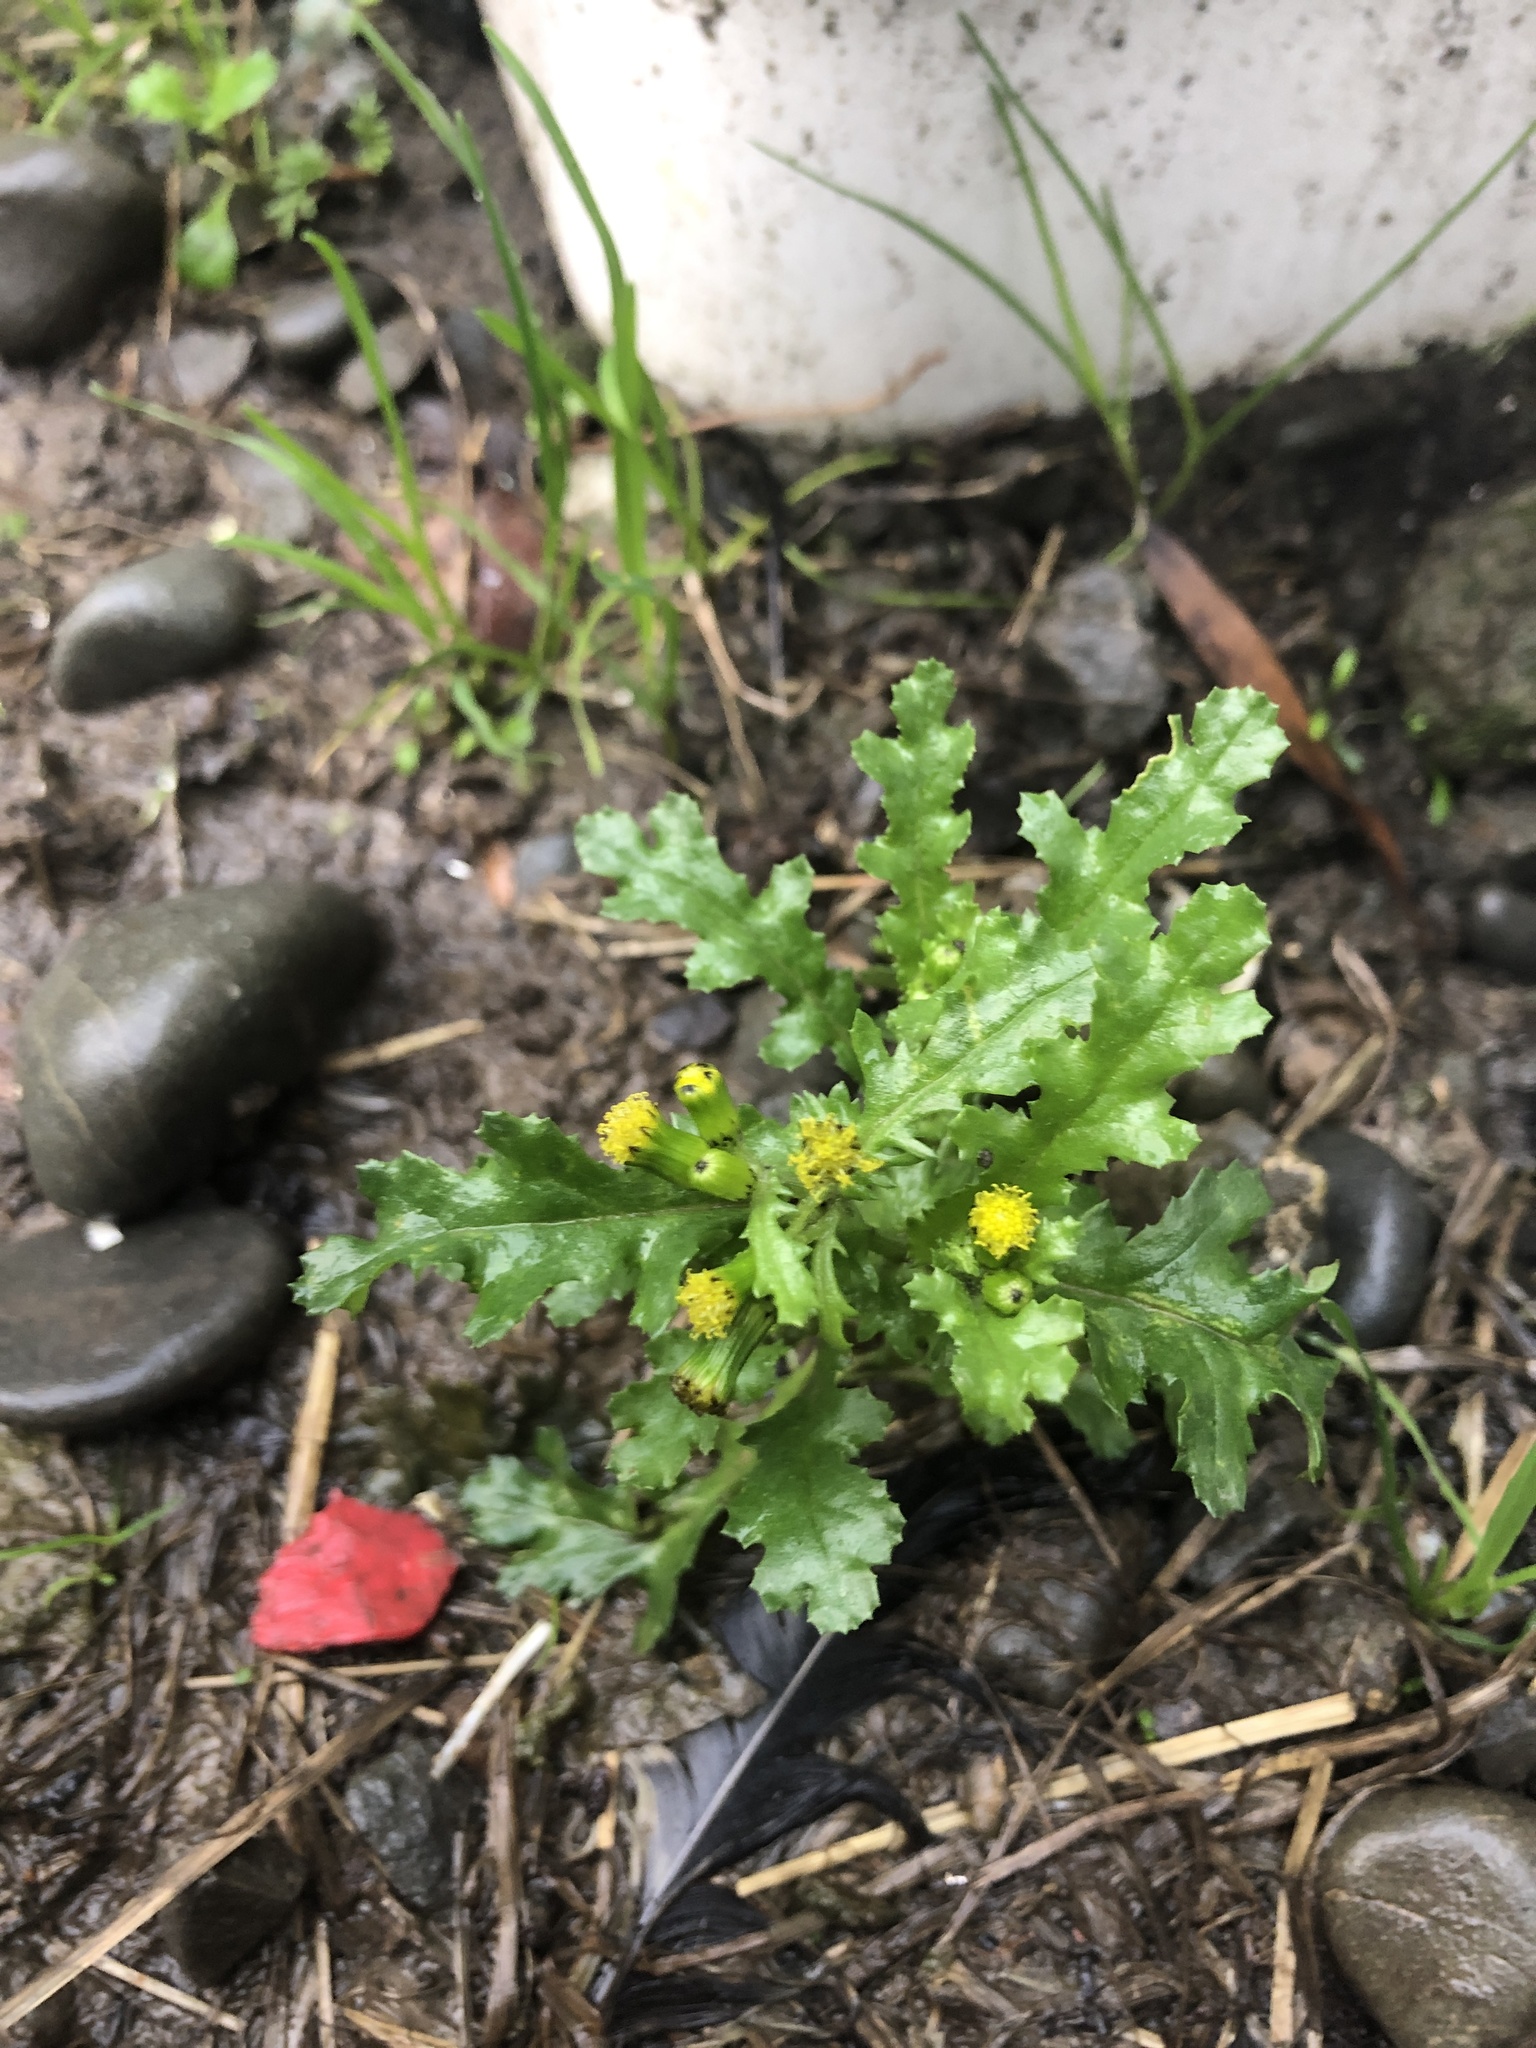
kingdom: Plantae
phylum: Tracheophyta
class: Magnoliopsida
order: Asterales
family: Asteraceae
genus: Senecio
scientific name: Senecio vulgaris
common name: Old-man-in-the-spring
